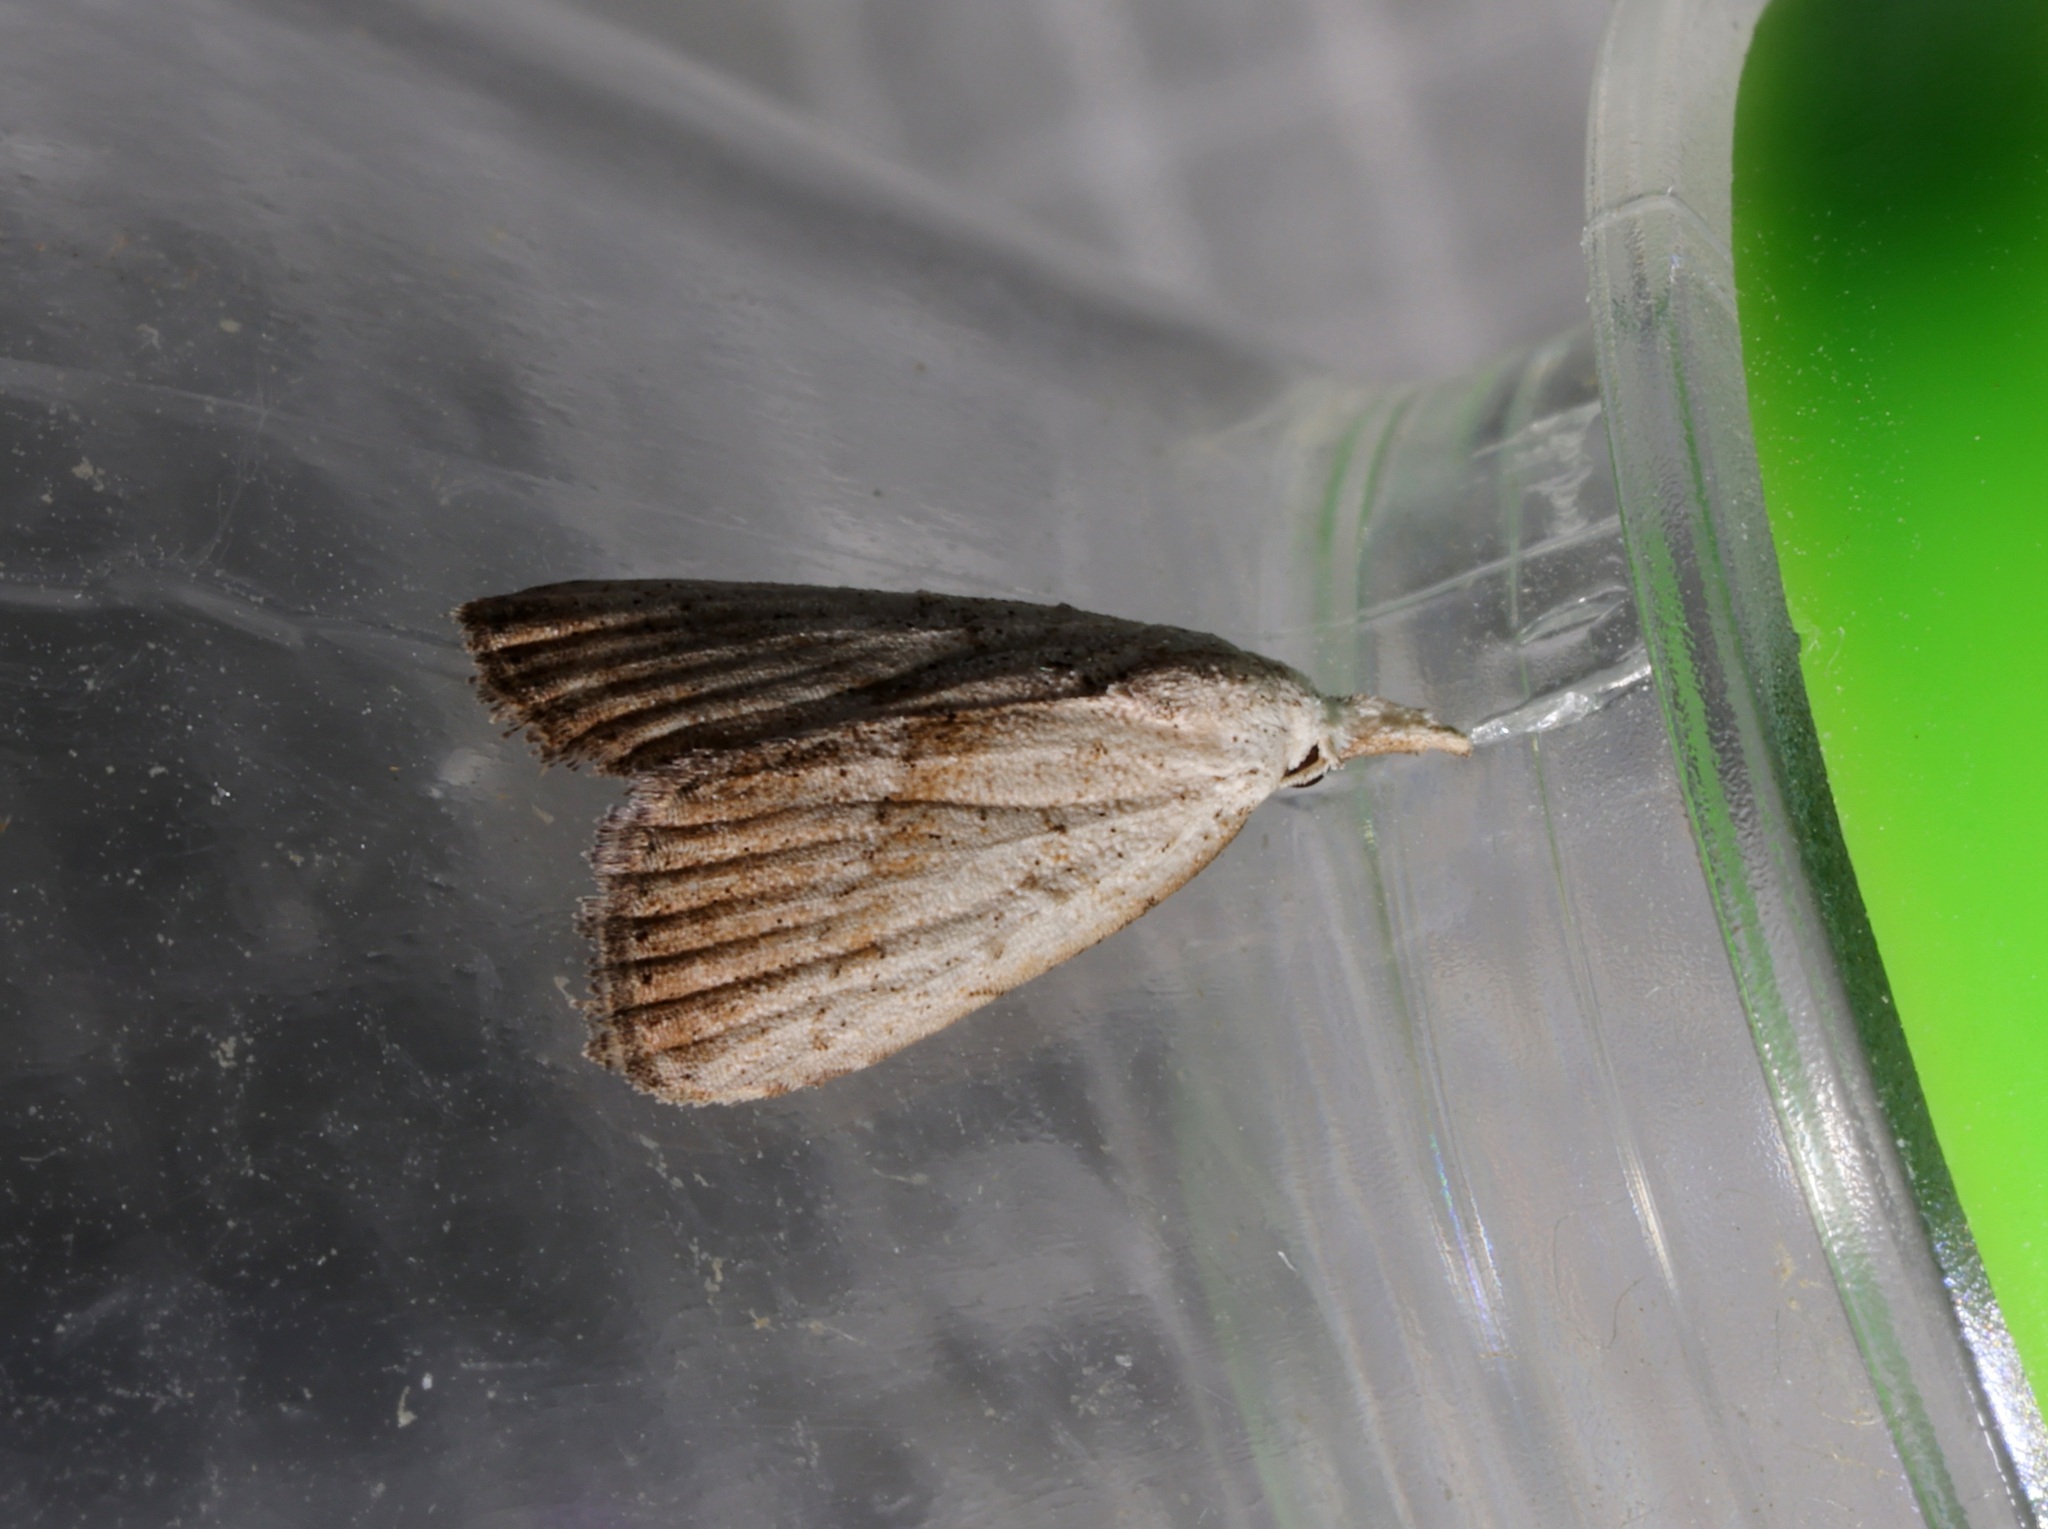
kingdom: Animalia
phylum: Arthropoda
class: Insecta
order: Lepidoptera
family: Nolidae
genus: Meganola
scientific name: Meganola brunellus
